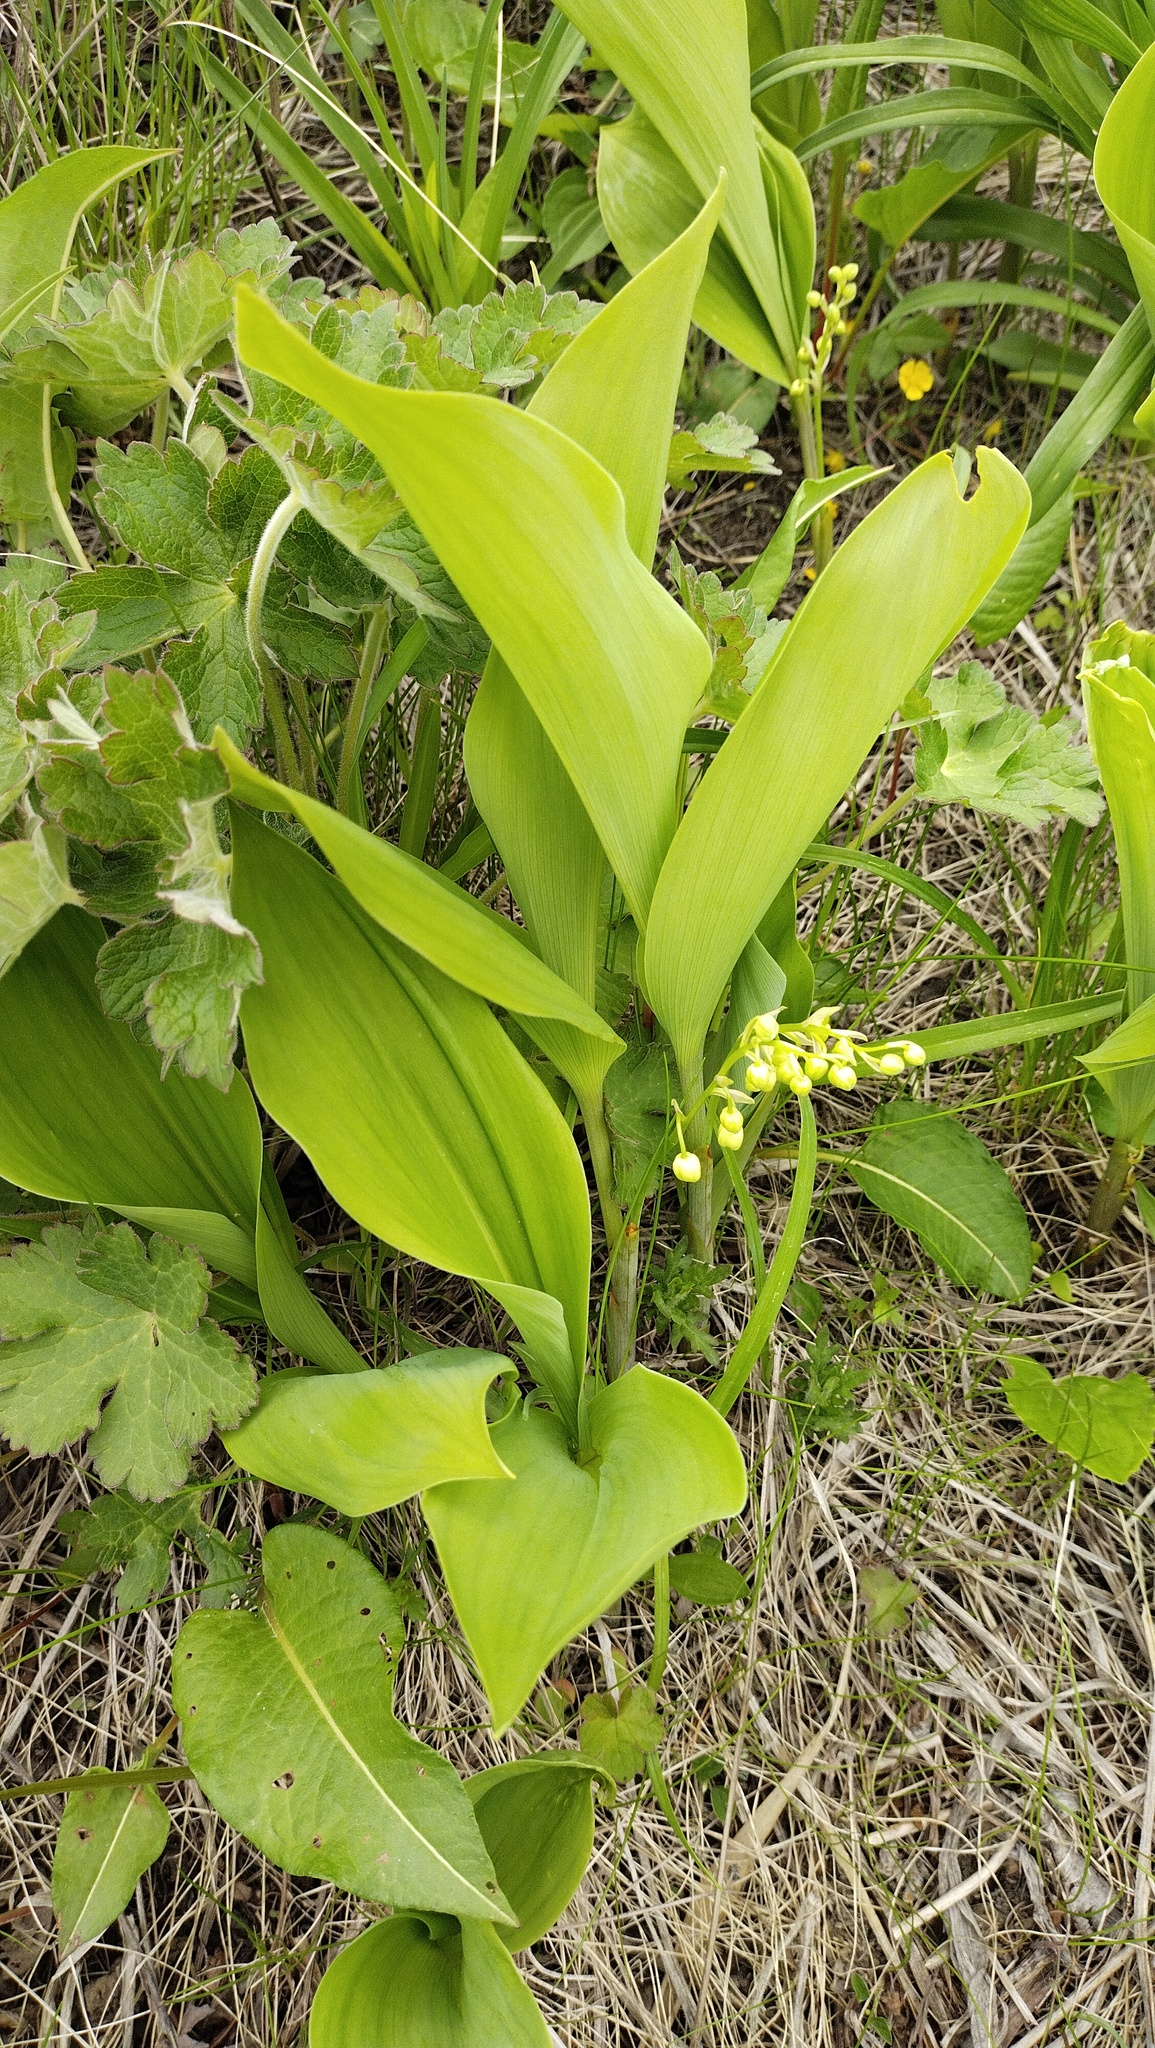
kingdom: Plantae
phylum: Tracheophyta
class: Liliopsida
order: Asparagales
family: Asparagaceae
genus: Convallaria
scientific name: Convallaria keiskei
